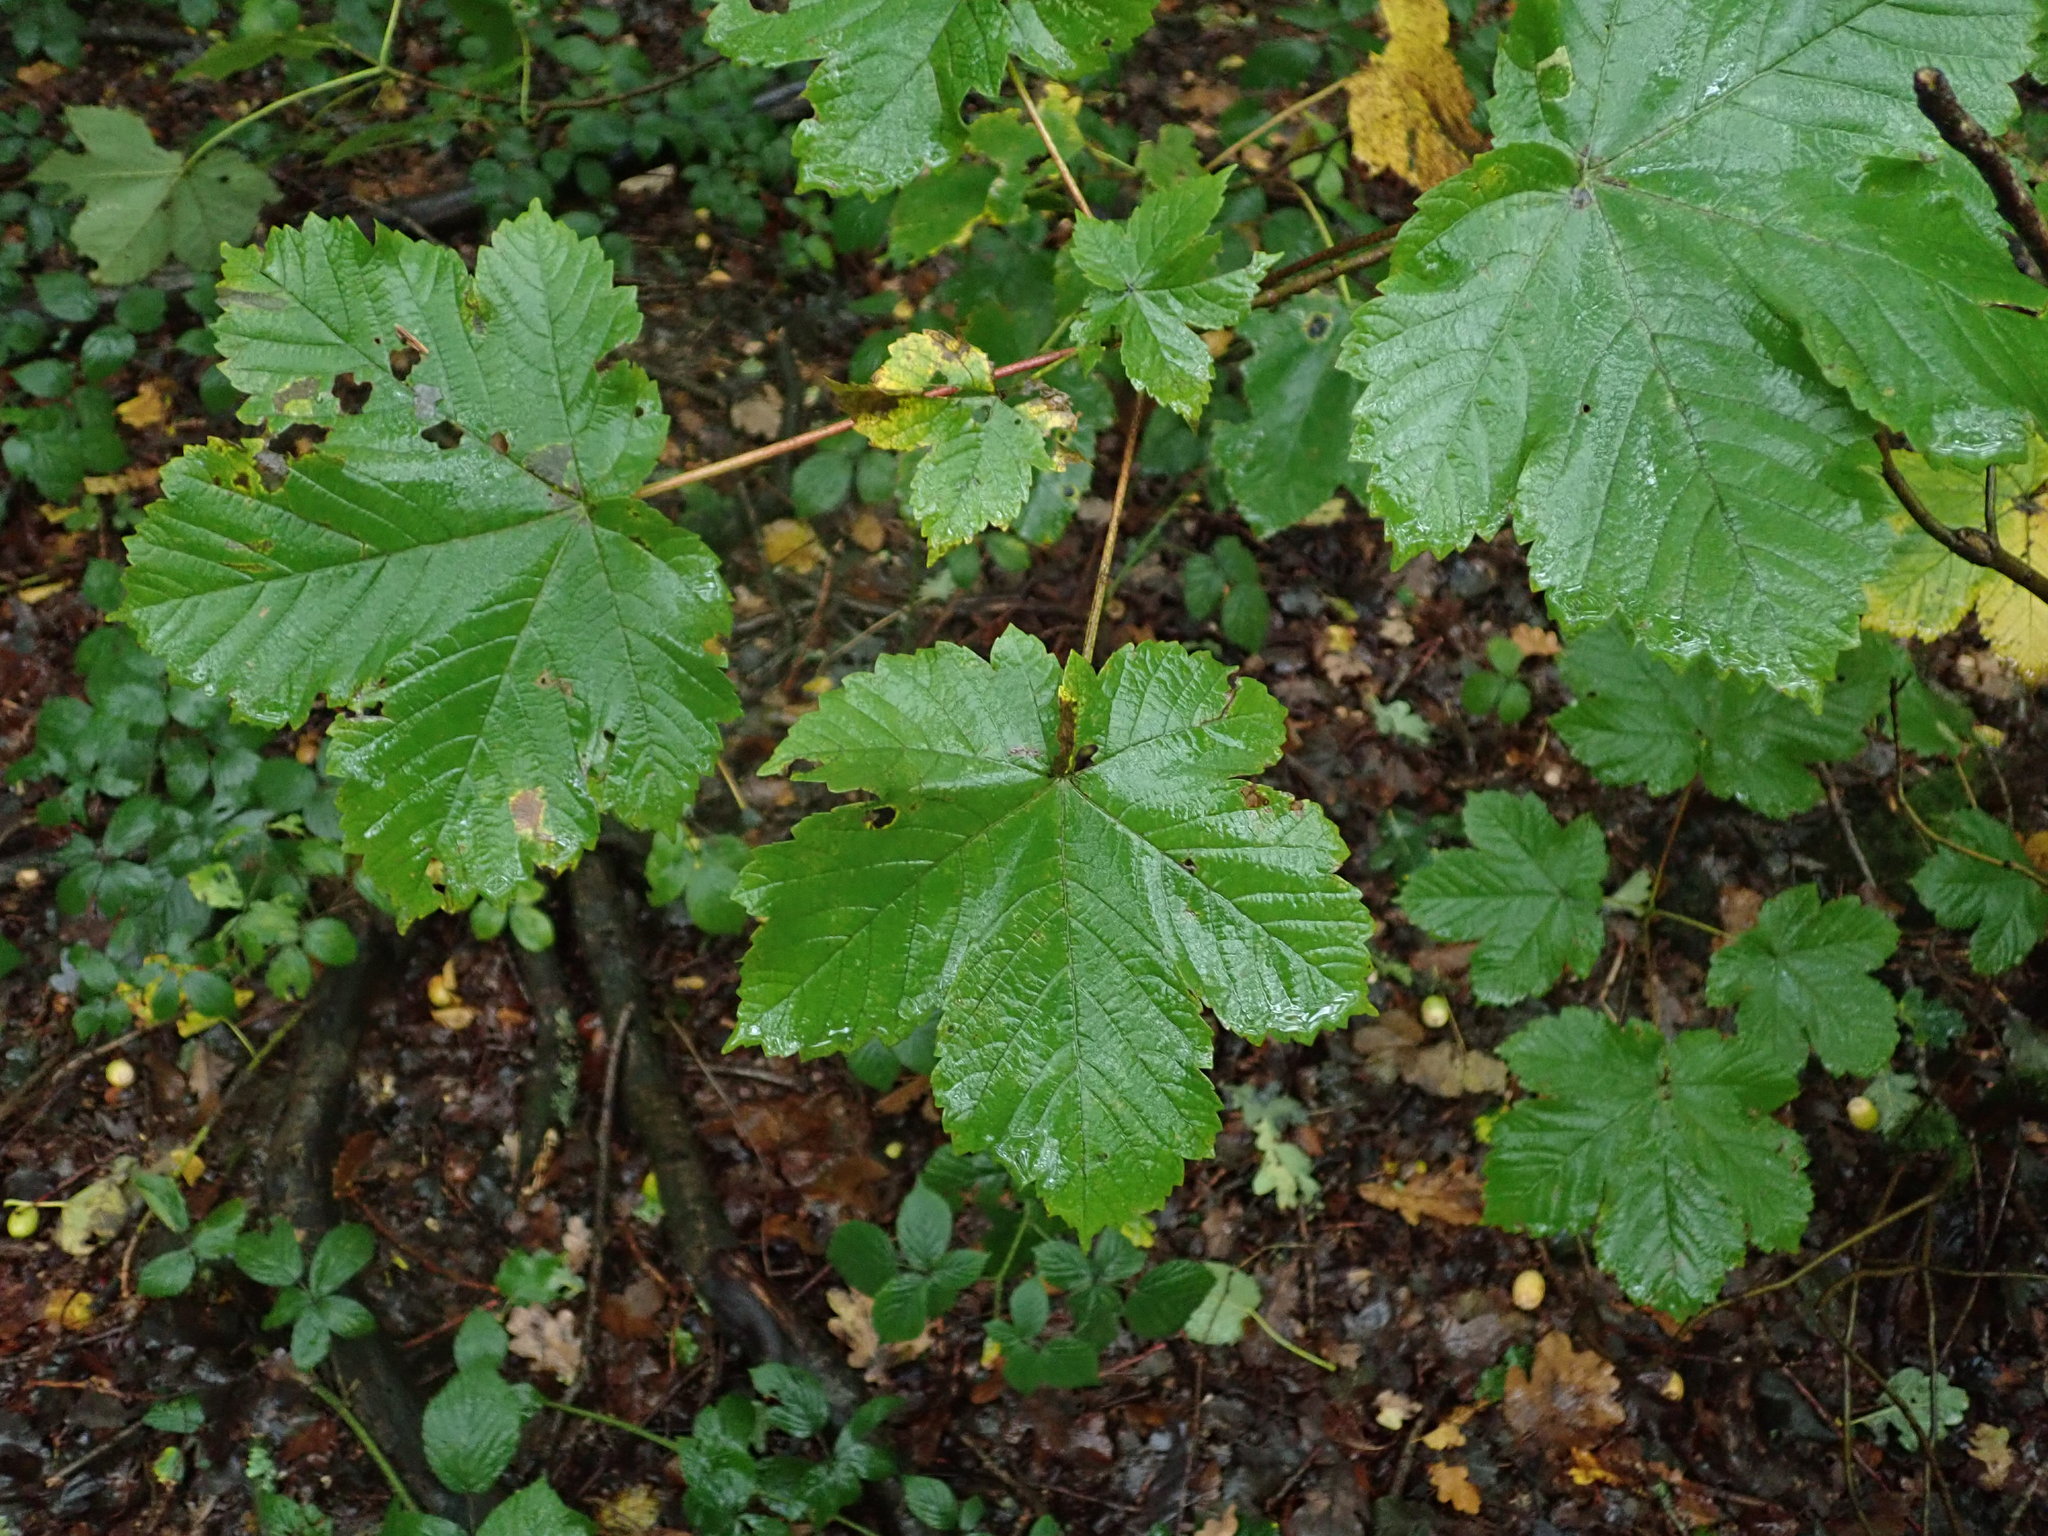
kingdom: Plantae
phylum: Tracheophyta
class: Magnoliopsida
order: Sapindales
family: Sapindaceae
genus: Acer
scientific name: Acer pseudoplatanus
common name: Sycamore
